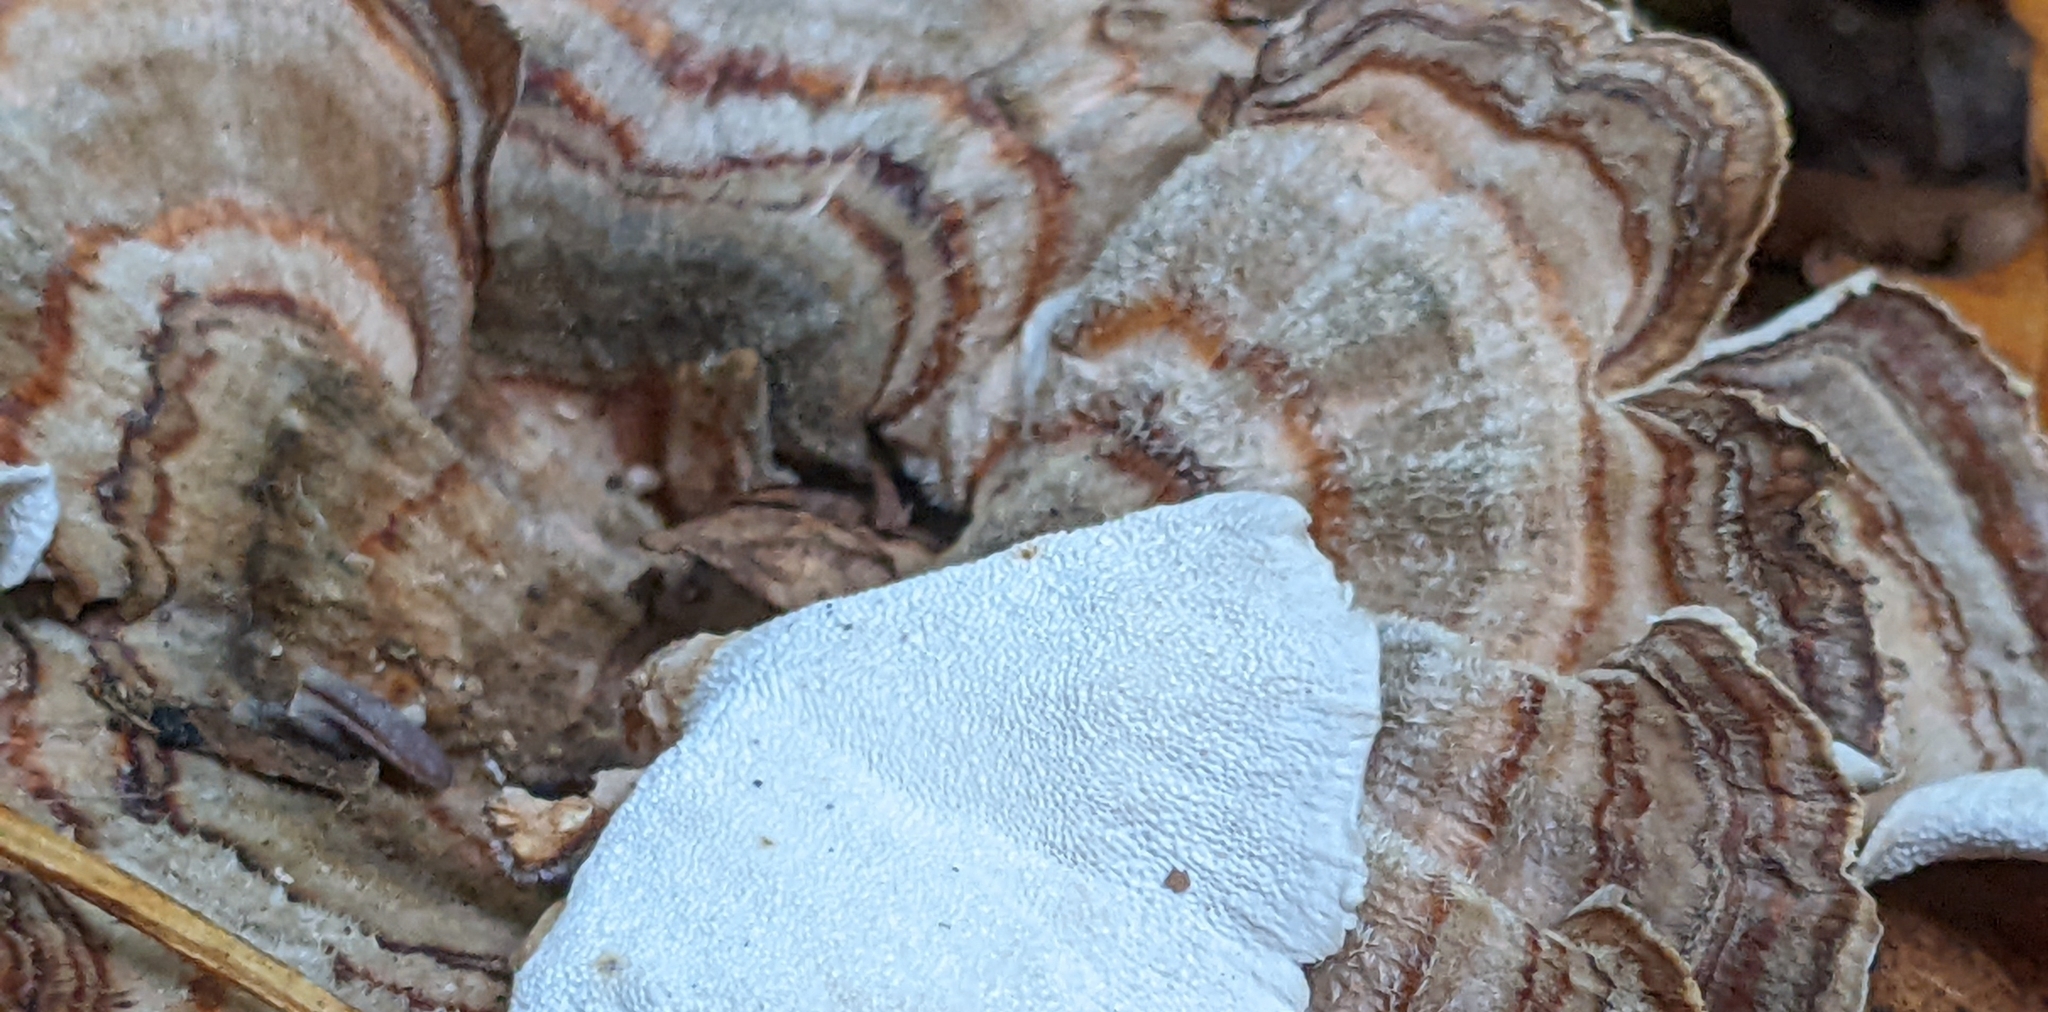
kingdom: Fungi
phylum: Basidiomycota
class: Agaricomycetes
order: Polyporales
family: Polyporaceae
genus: Trametes
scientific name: Trametes versicolor
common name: Turkeytail
